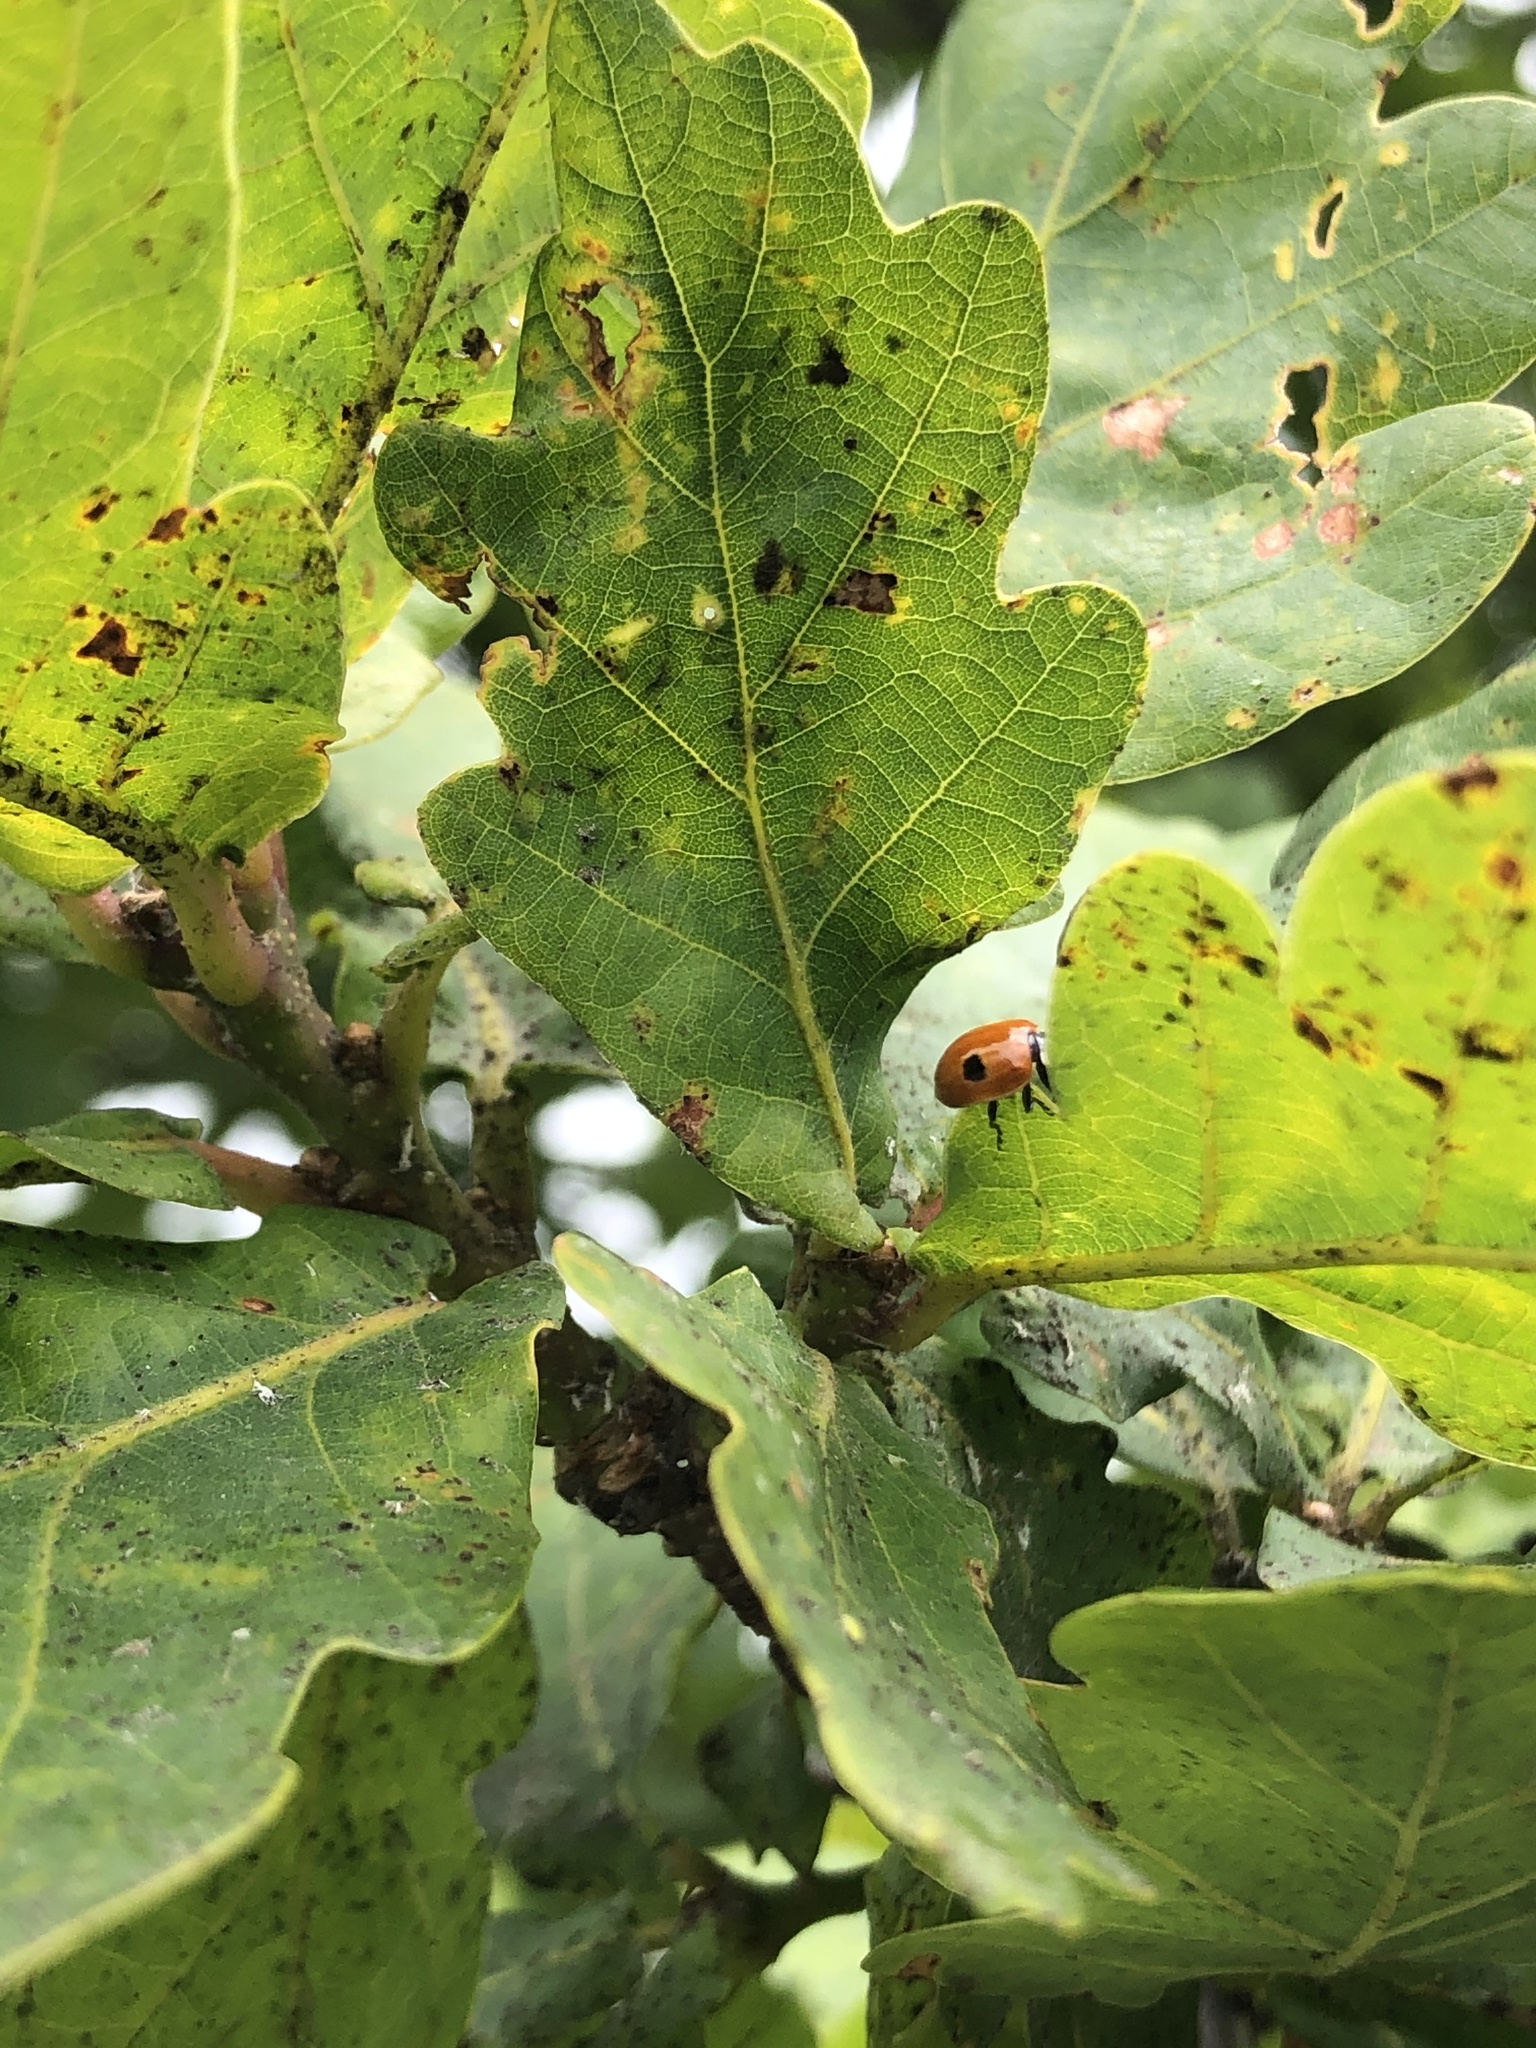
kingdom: Animalia
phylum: Arthropoda
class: Insecta
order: Coleoptera
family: Coccinellidae
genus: Adalia
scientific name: Adalia bipunctata
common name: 2-spot ladybird
